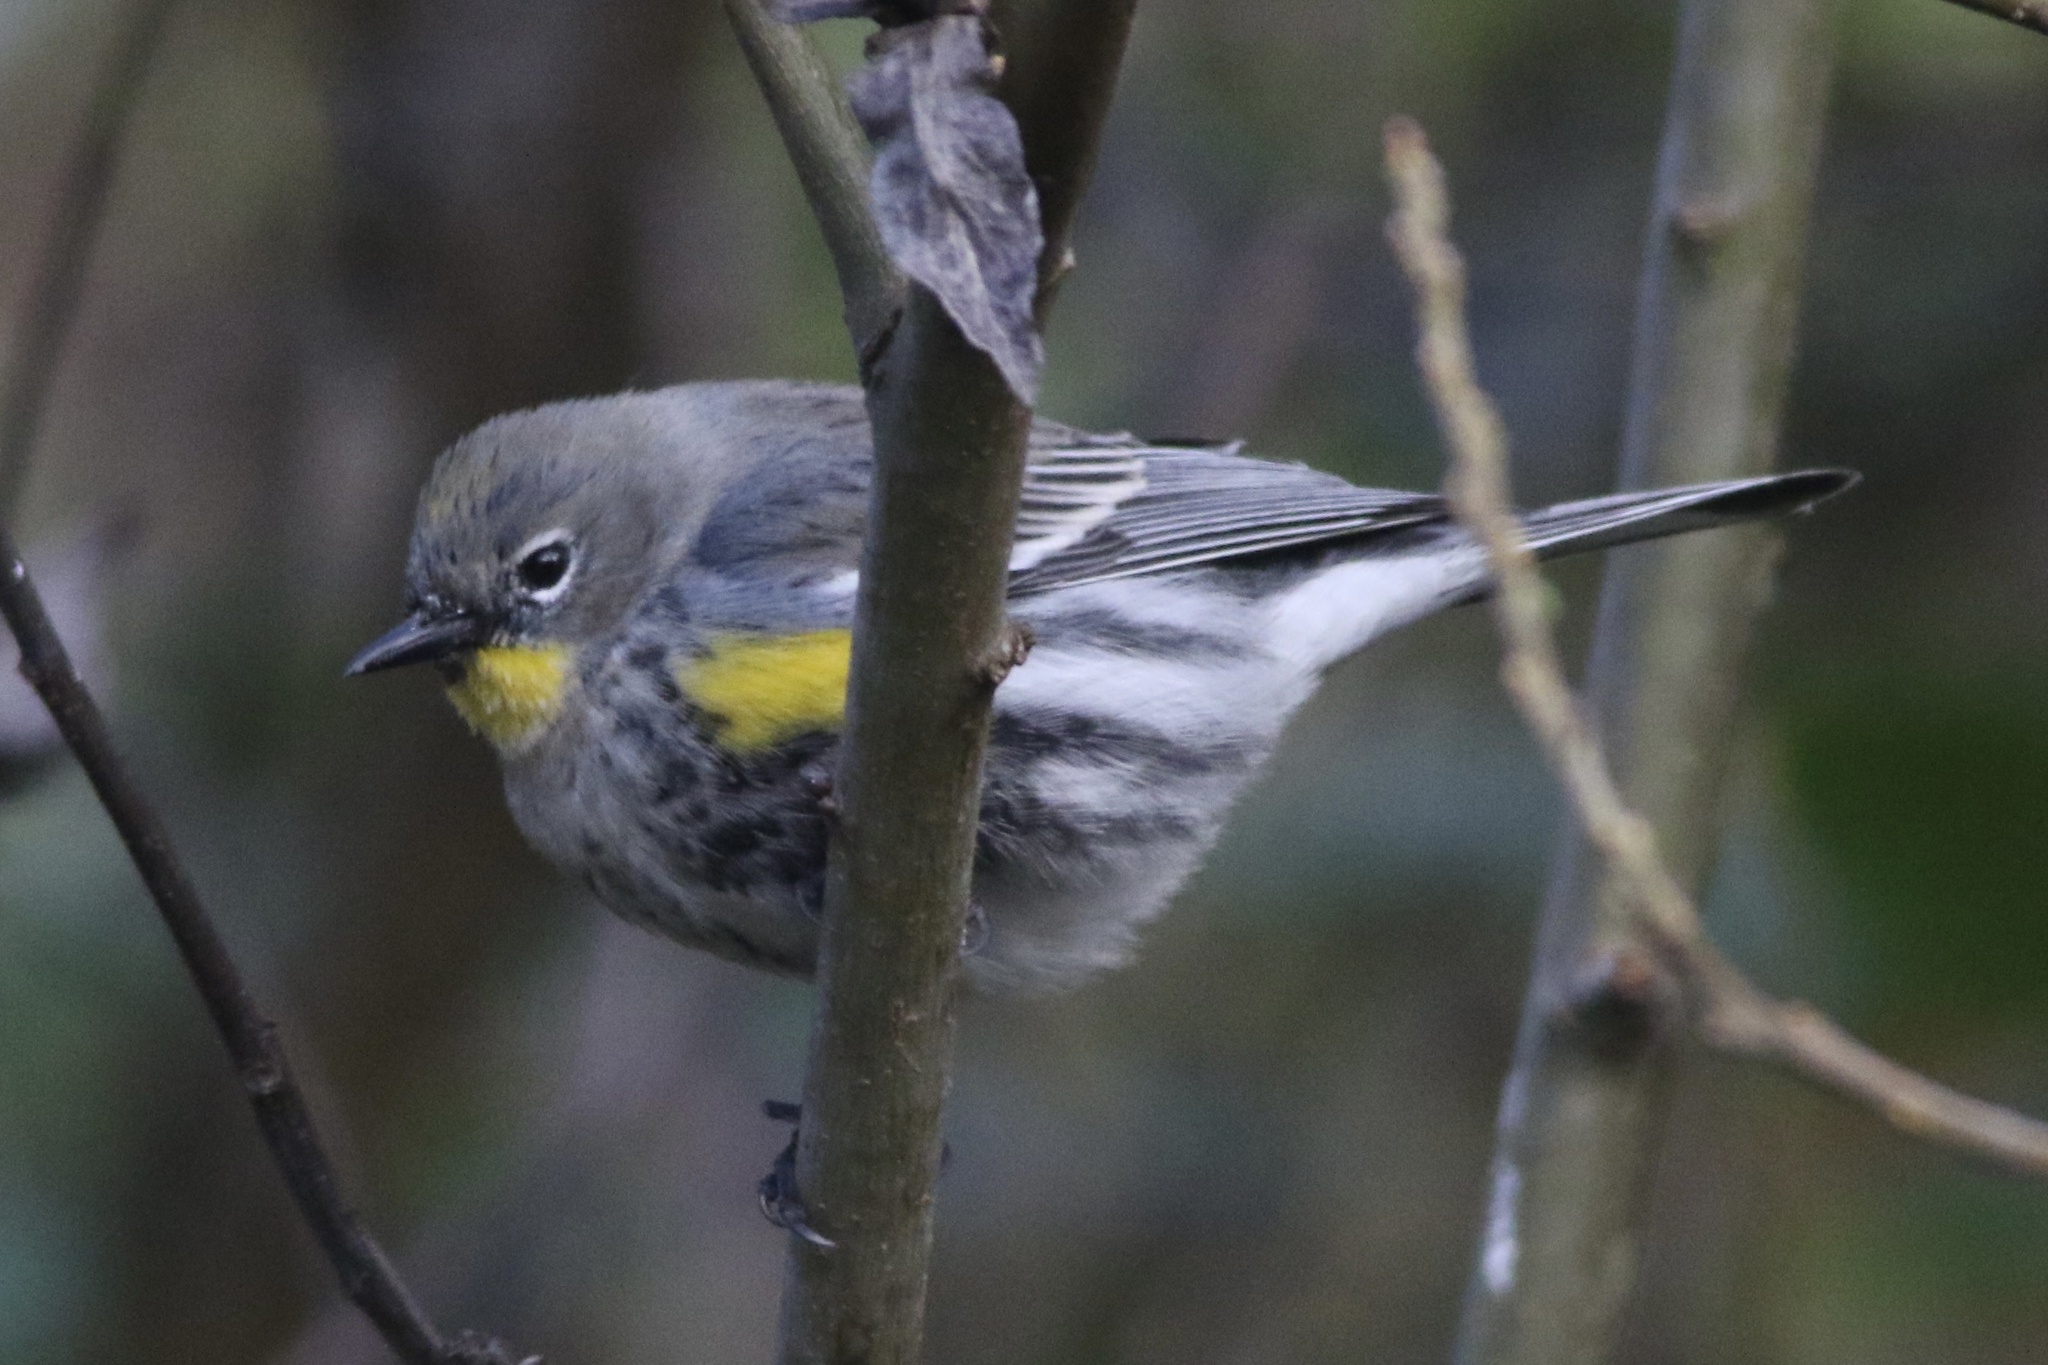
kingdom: Animalia
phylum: Chordata
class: Aves
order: Passeriformes
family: Parulidae
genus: Setophaga
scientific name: Setophaga coronata
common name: Myrtle warbler
